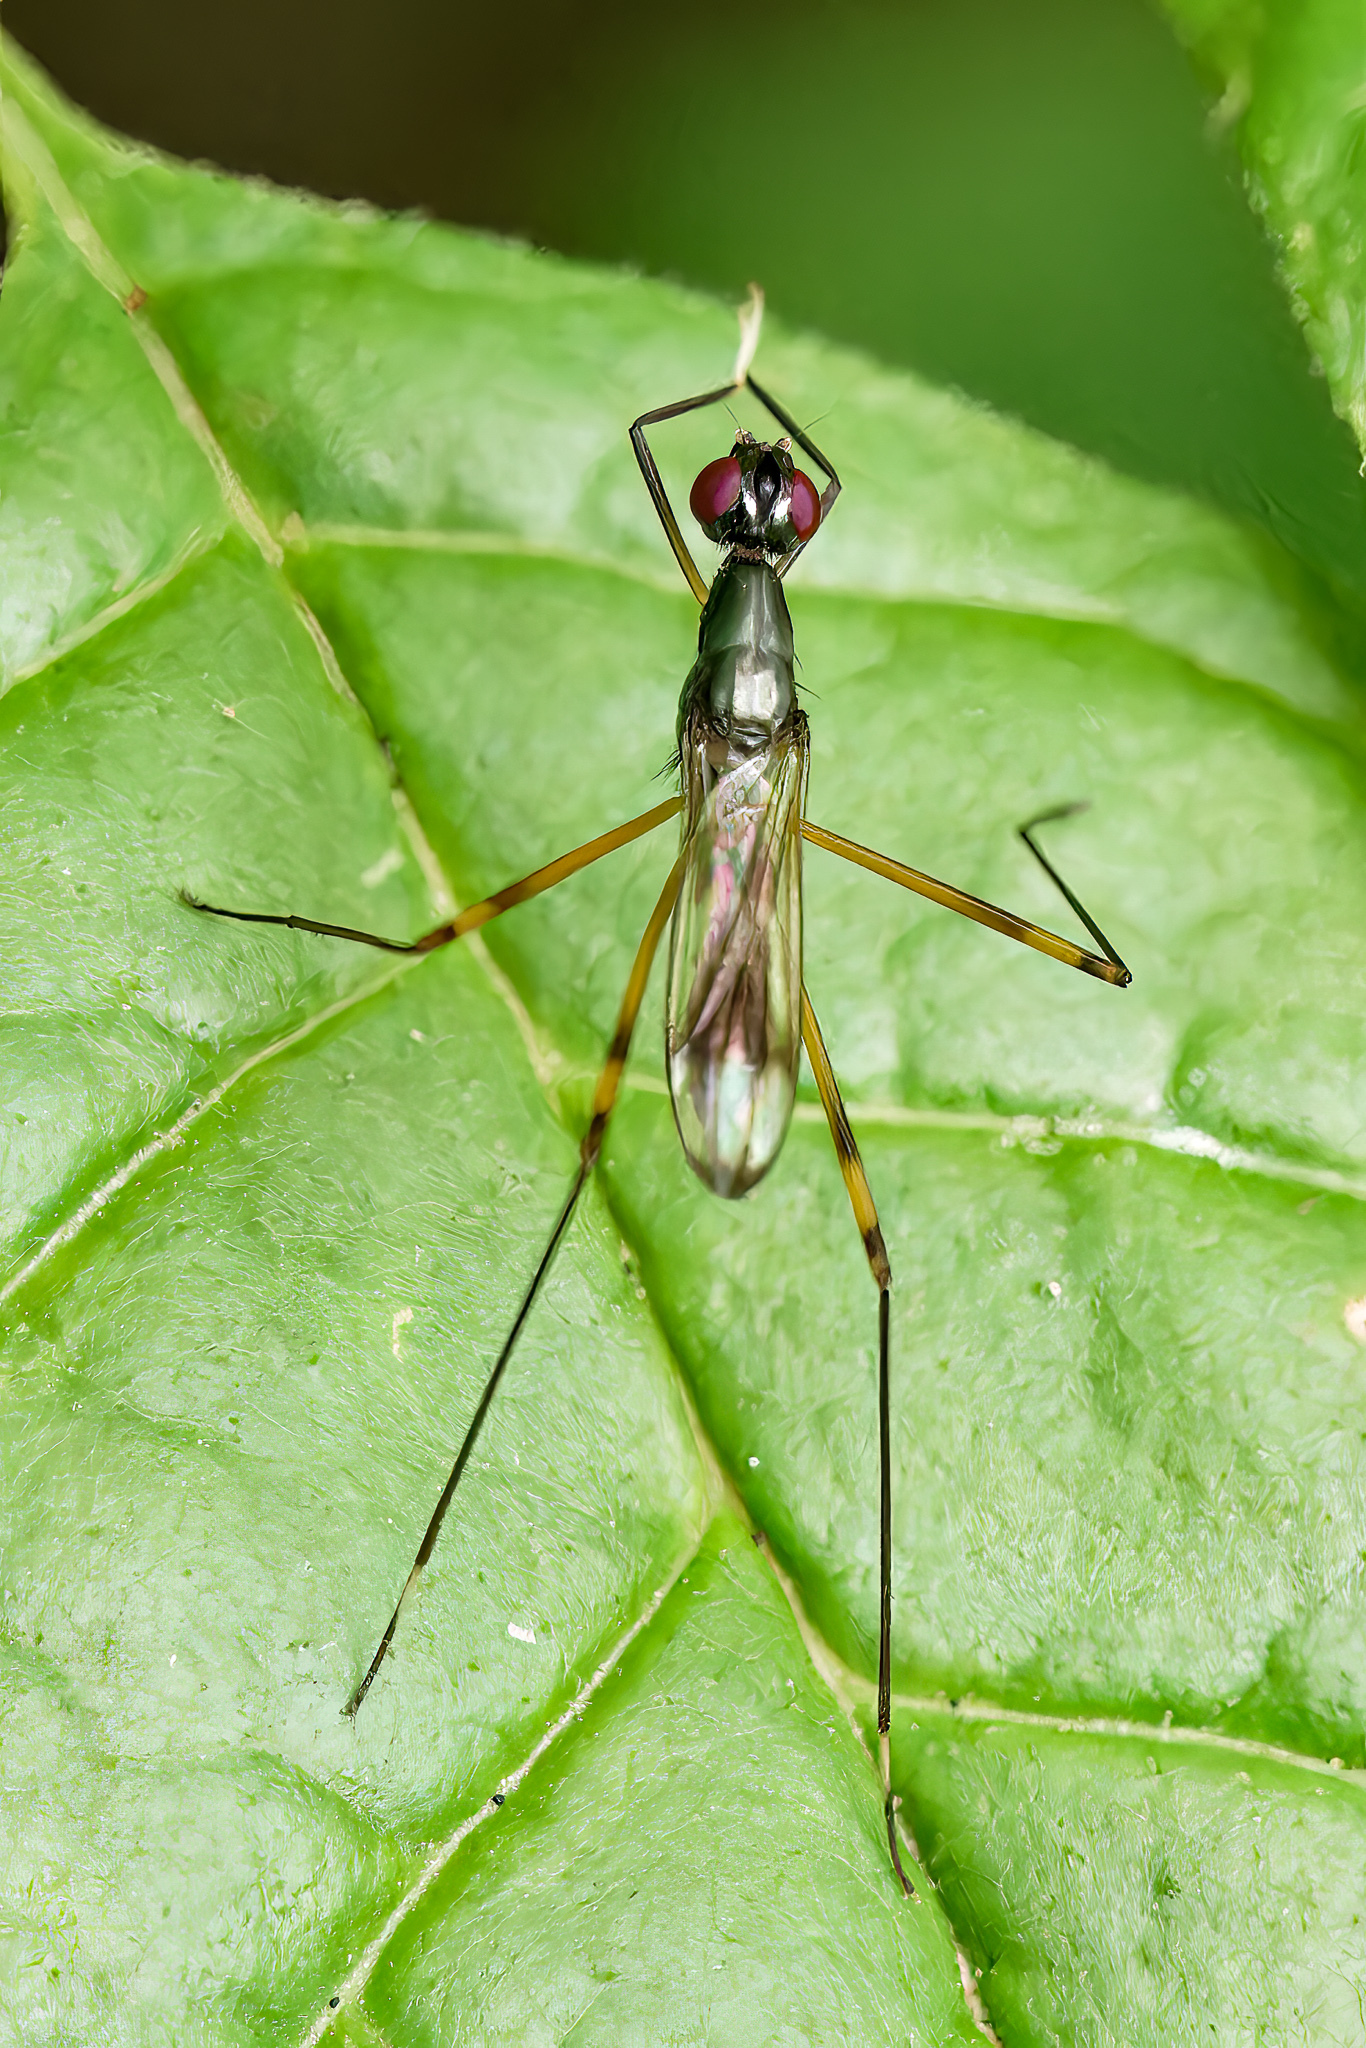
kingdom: Animalia
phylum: Arthropoda
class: Insecta
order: Diptera
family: Micropezidae
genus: Rainieria
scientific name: Rainieria antennaepes
